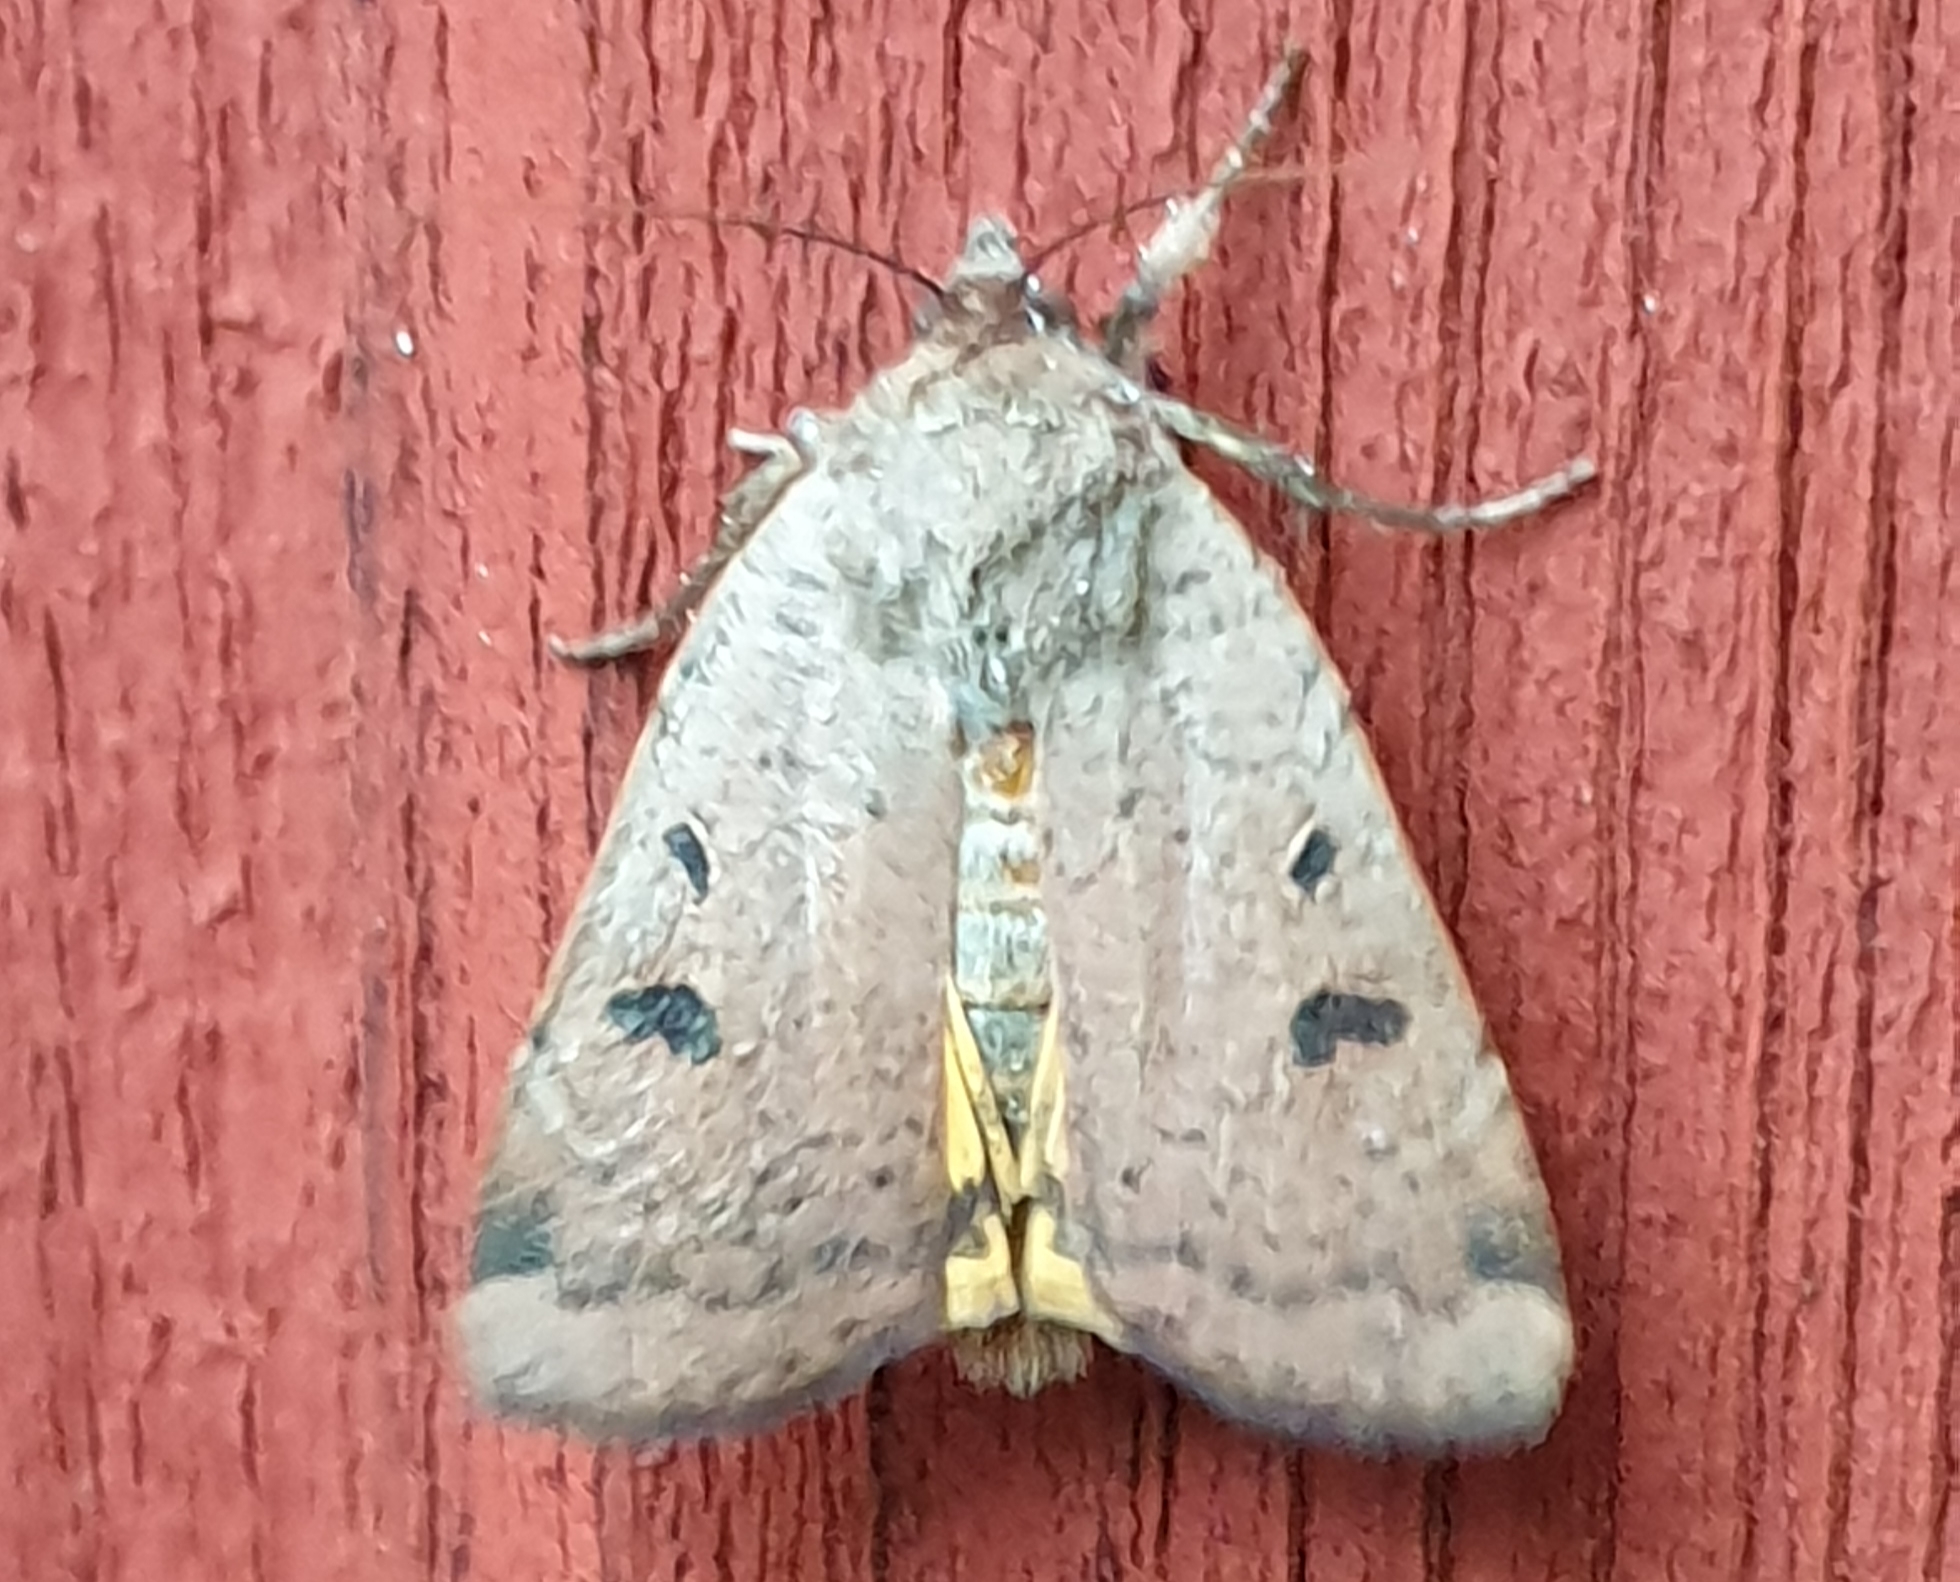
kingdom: Animalia
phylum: Arthropoda
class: Insecta
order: Lepidoptera
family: Noctuidae
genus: Noctua
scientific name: Noctua comes
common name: Lesser yellow underwing
